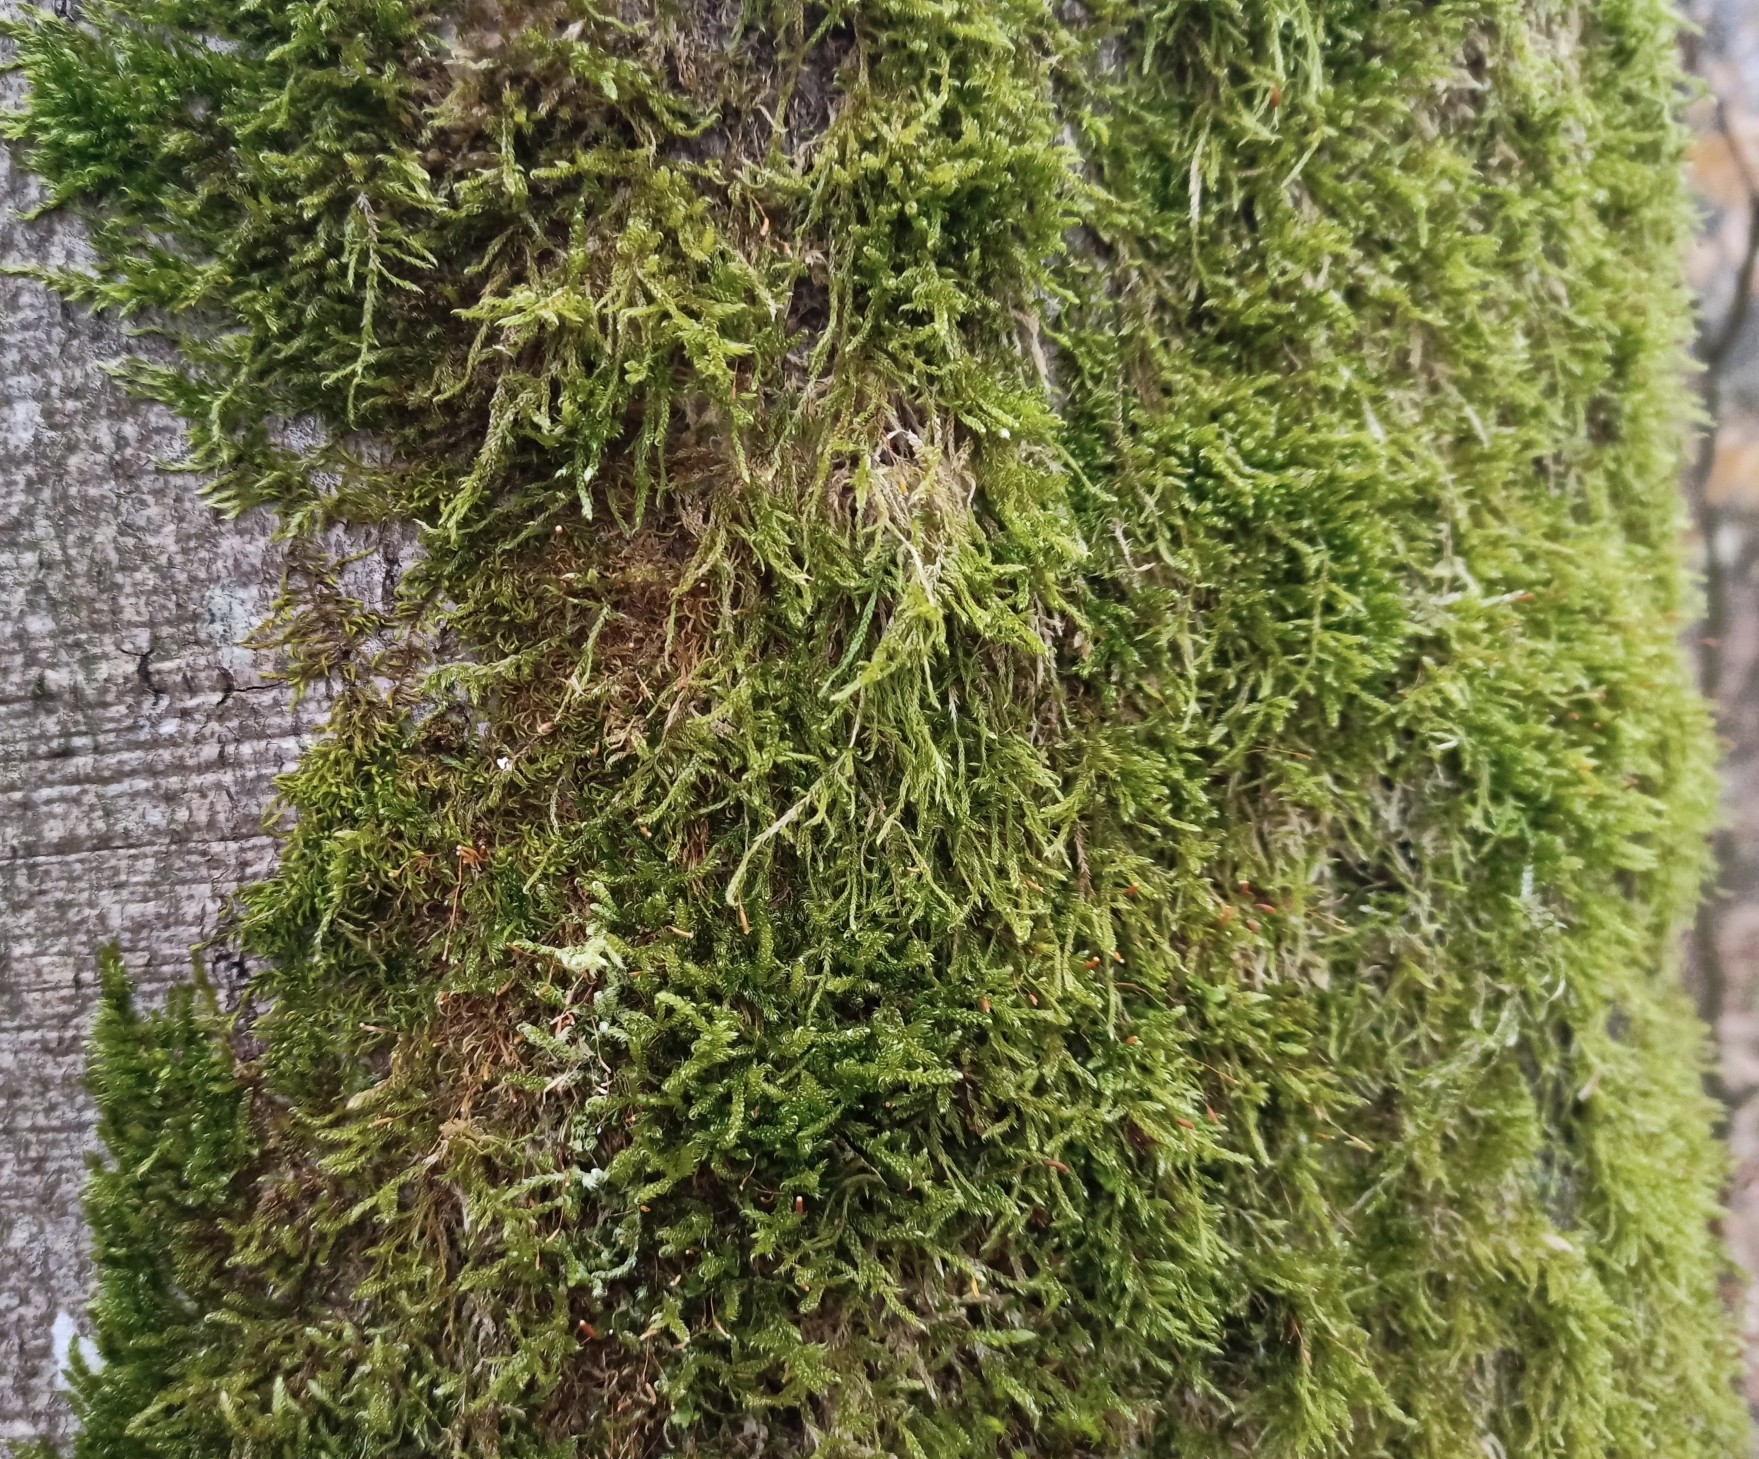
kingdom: Plantae
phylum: Bryophyta
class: Bryopsida
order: Hypnales
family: Hypnaceae
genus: Hypnum
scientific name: Hypnum cupressiforme
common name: Cypress-leaved plait-moss
